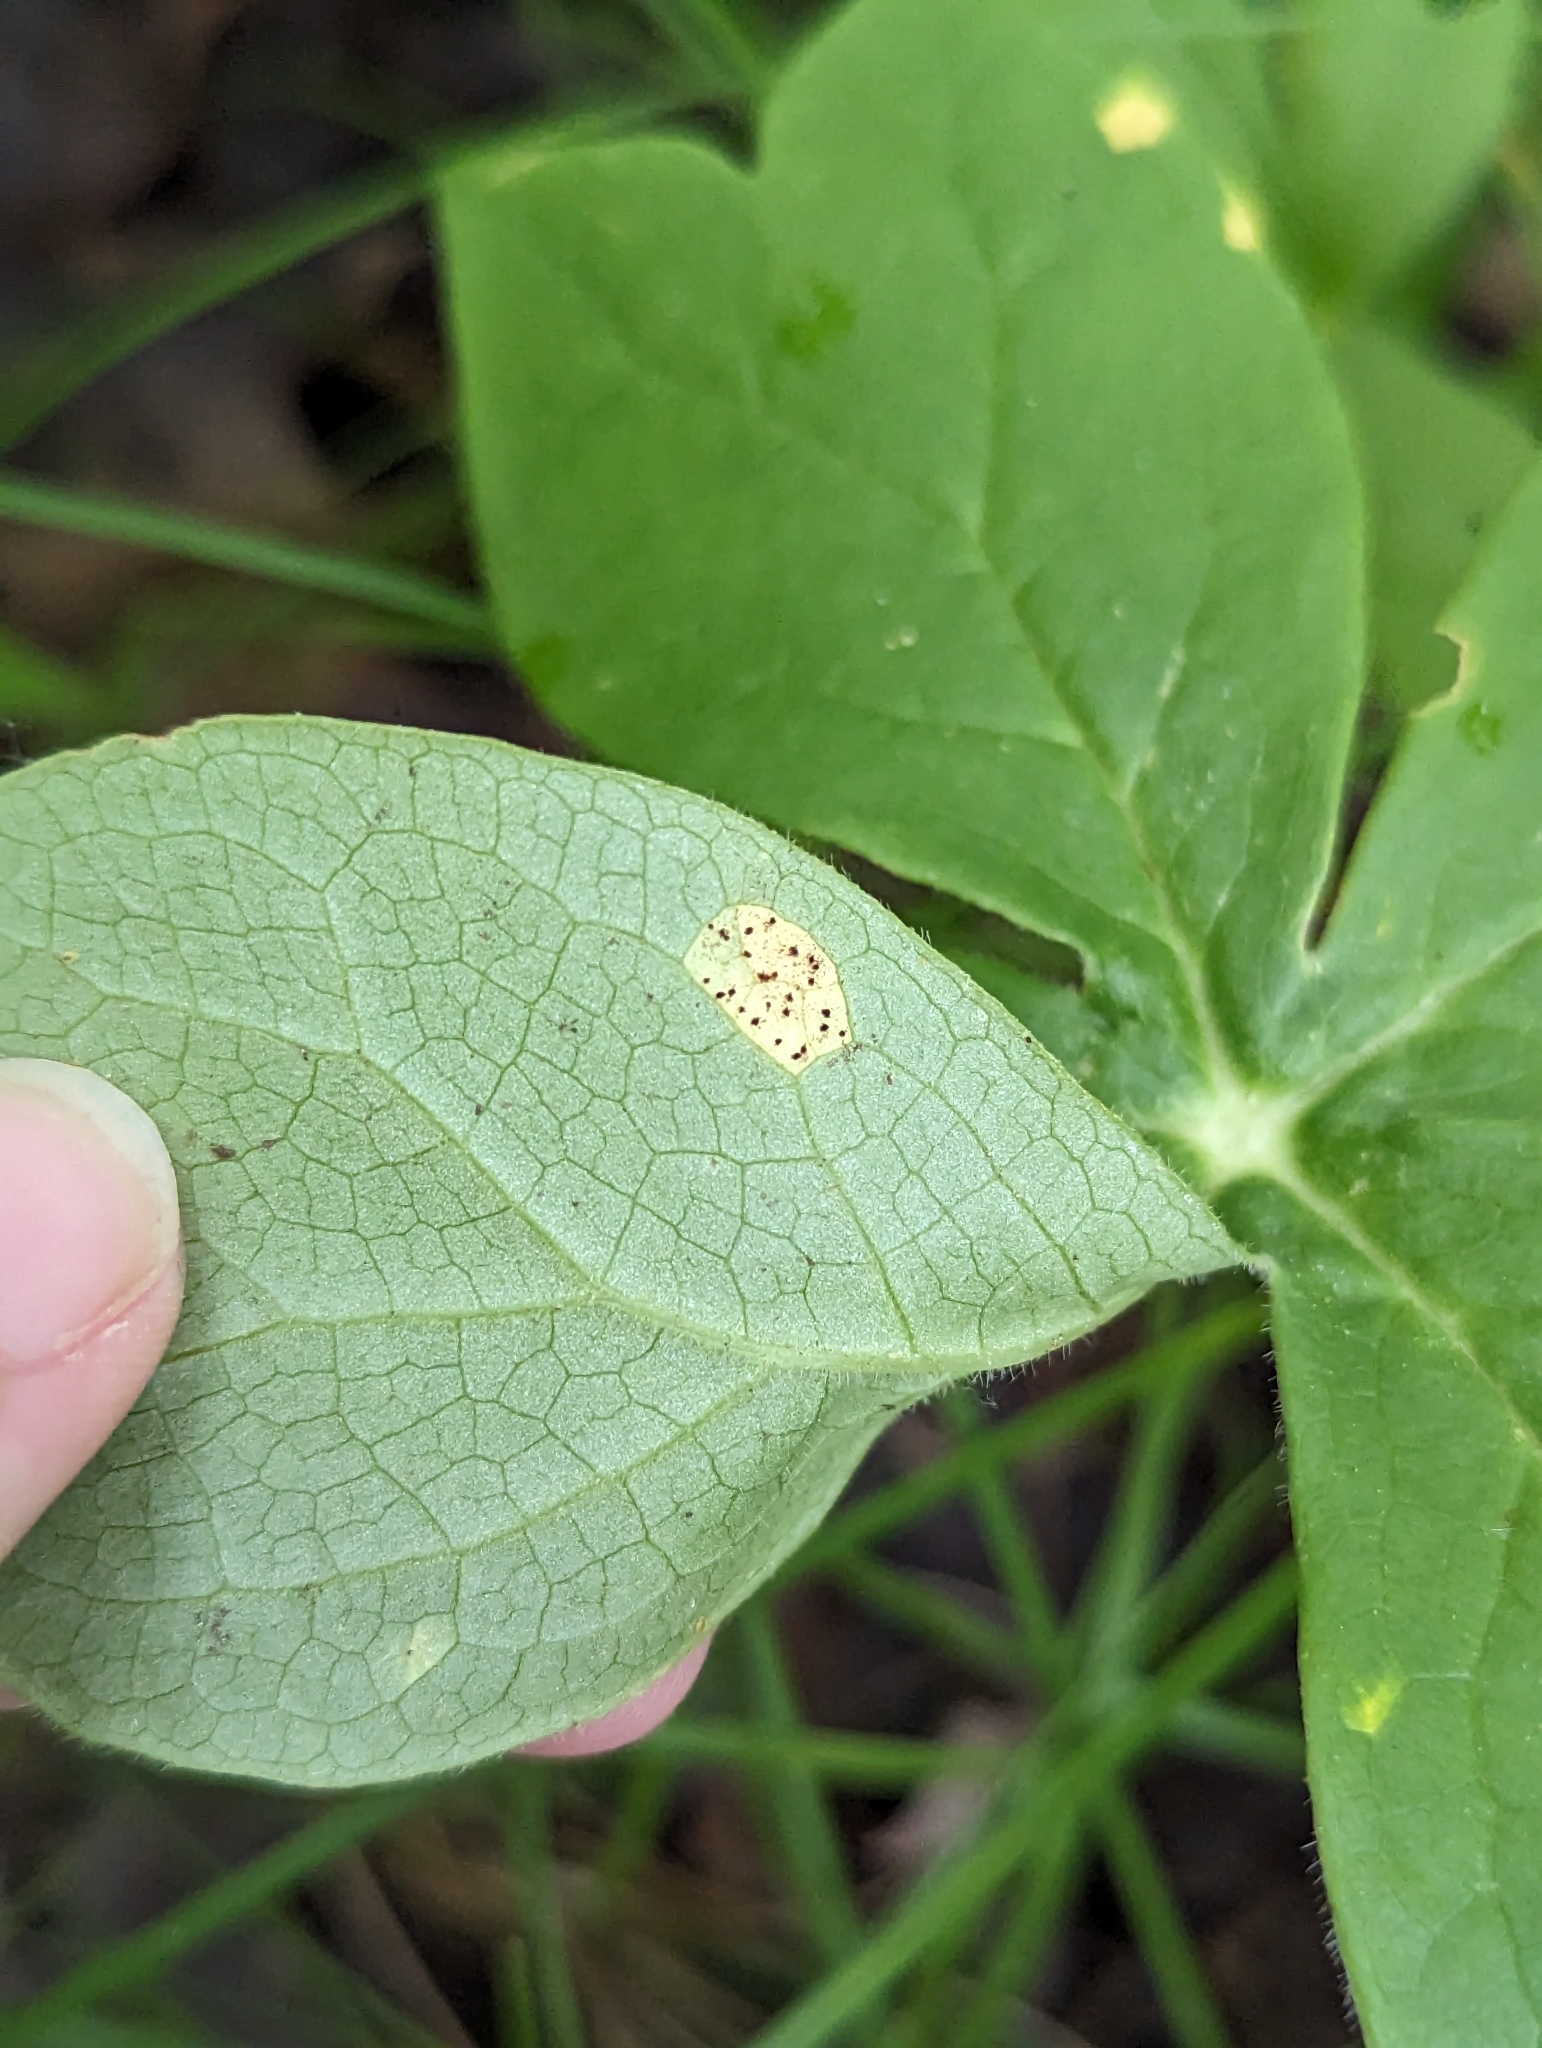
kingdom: Fungi
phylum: Basidiomycota
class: Pucciniomycetes
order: Pucciniales
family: Pucciniaceae
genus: Puccinia
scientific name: Puccinia podophylli
